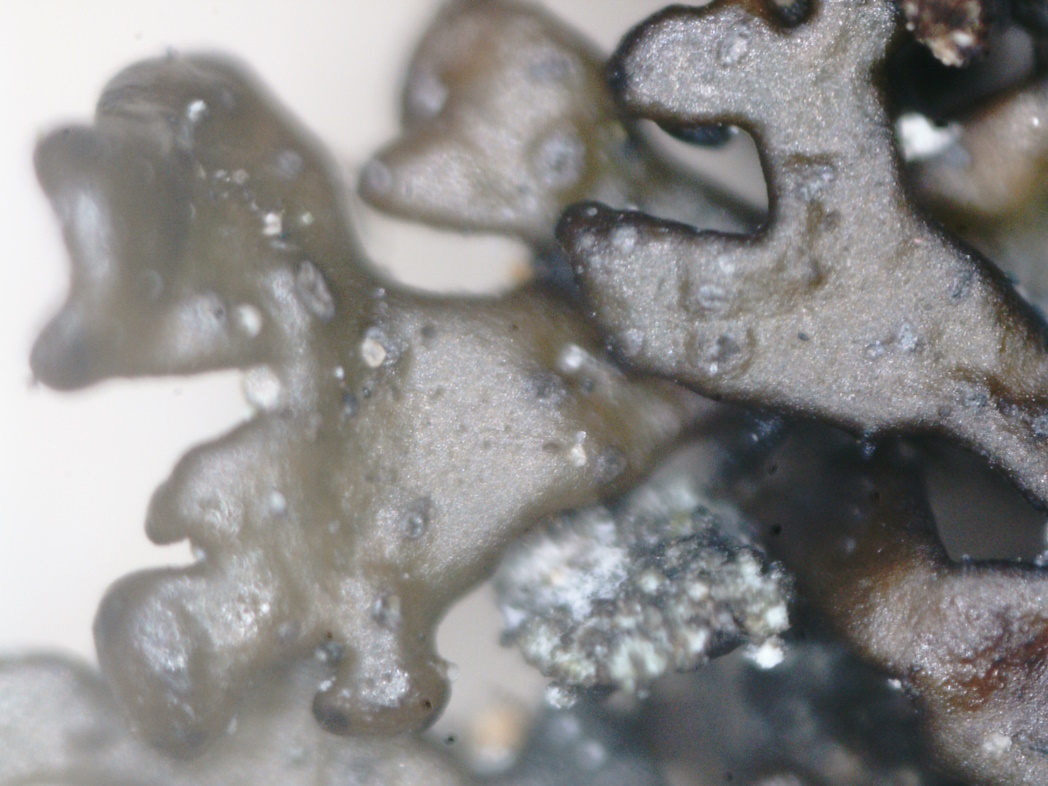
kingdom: Fungi
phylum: Ascomycota
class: Lecanoromycetes
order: Lecanorales
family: Parmeliaceae
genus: Montanelia
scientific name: Montanelia disjuncta
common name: Mealy camouflage lichen
